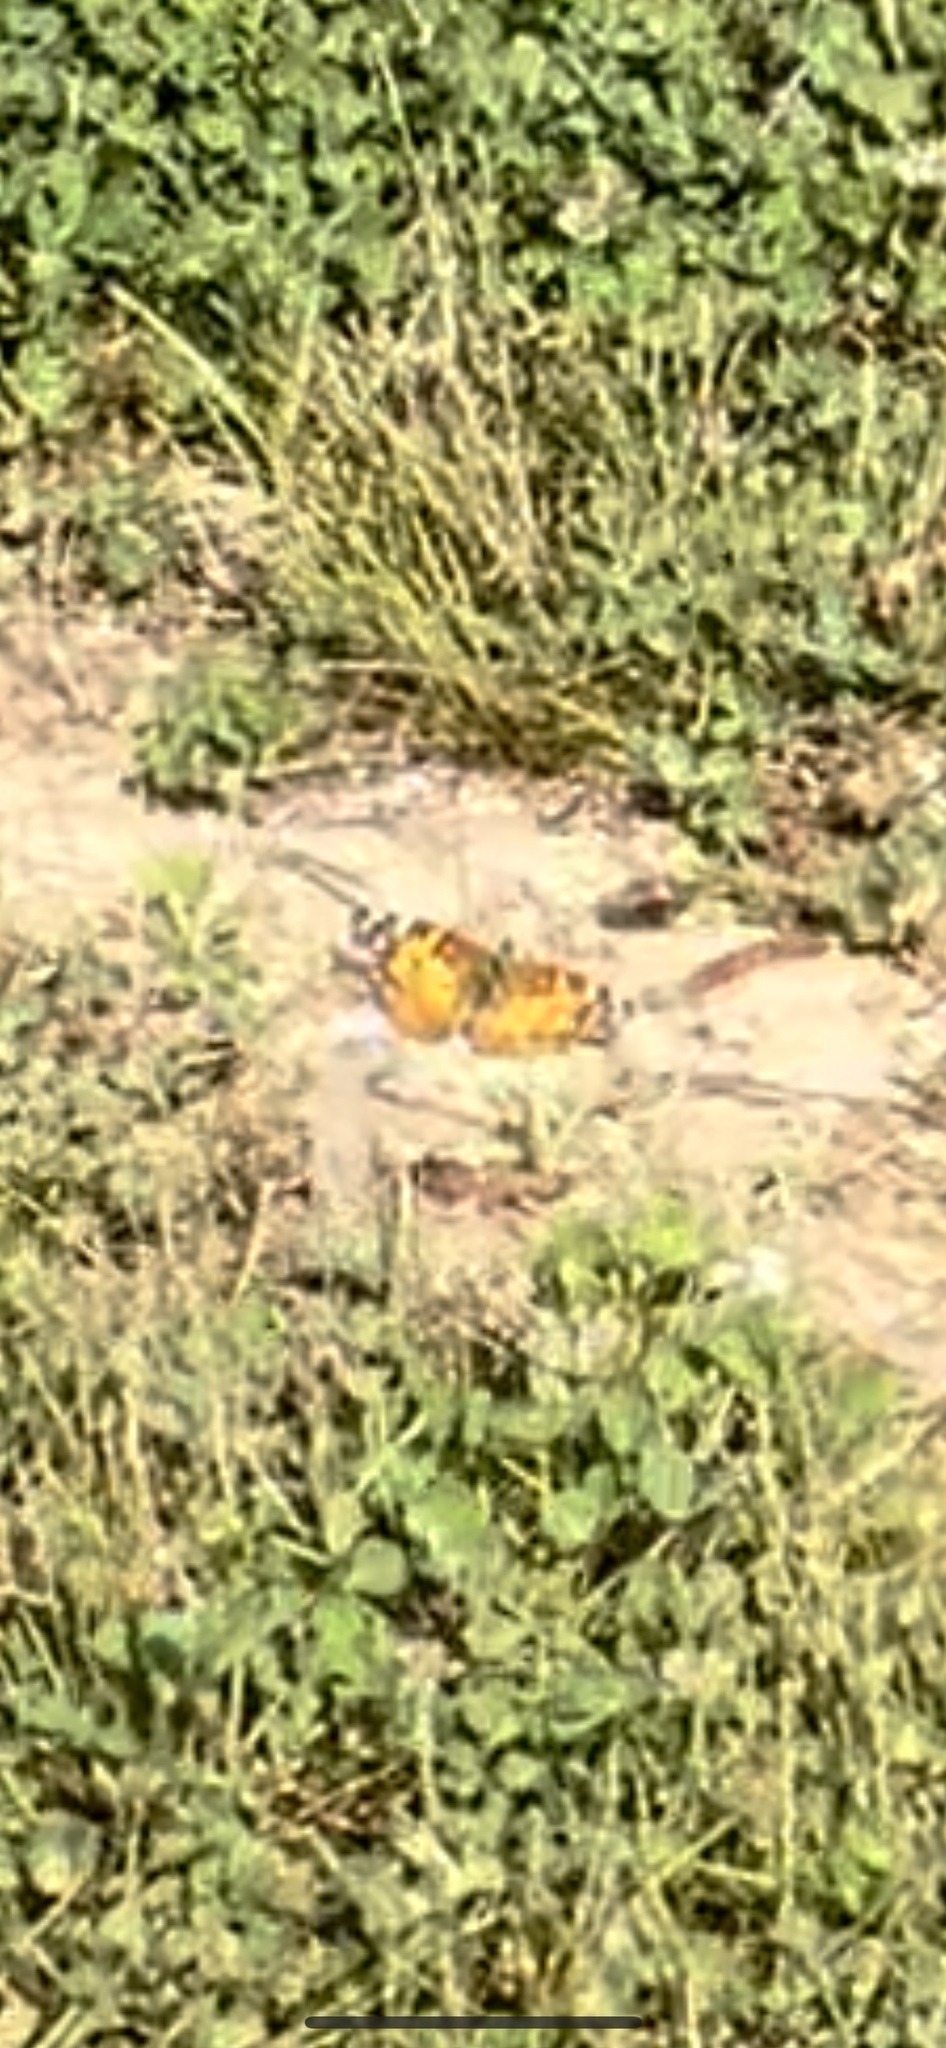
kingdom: Animalia
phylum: Arthropoda
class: Insecta
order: Lepidoptera
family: Nymphalidae
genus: Vanessa
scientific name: Vanessa virginiensis
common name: American lady
